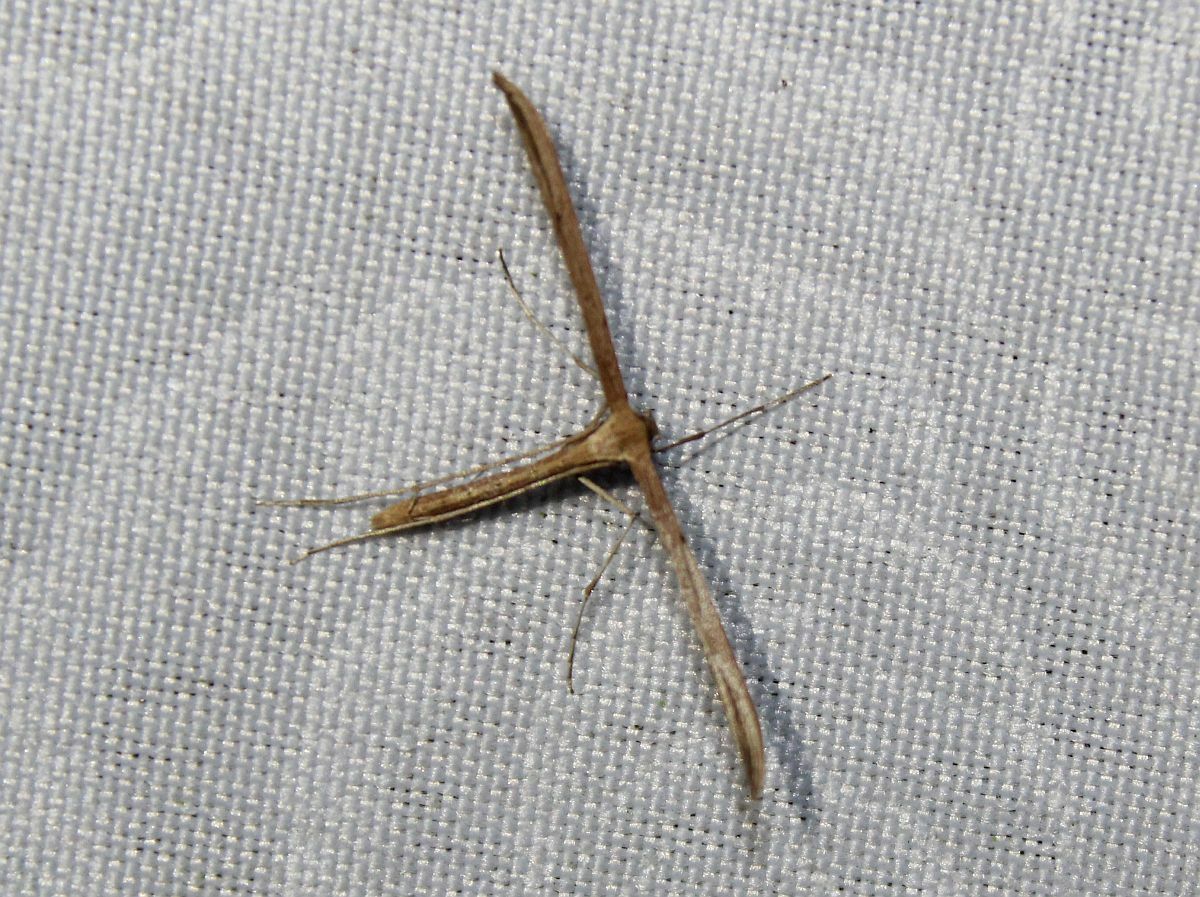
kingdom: Animalia
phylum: Arthropoda
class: Insecta
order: Lepidoptera
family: Pterophoridae
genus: Emmelina
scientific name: Emmelina monodactyla
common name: Common plume
